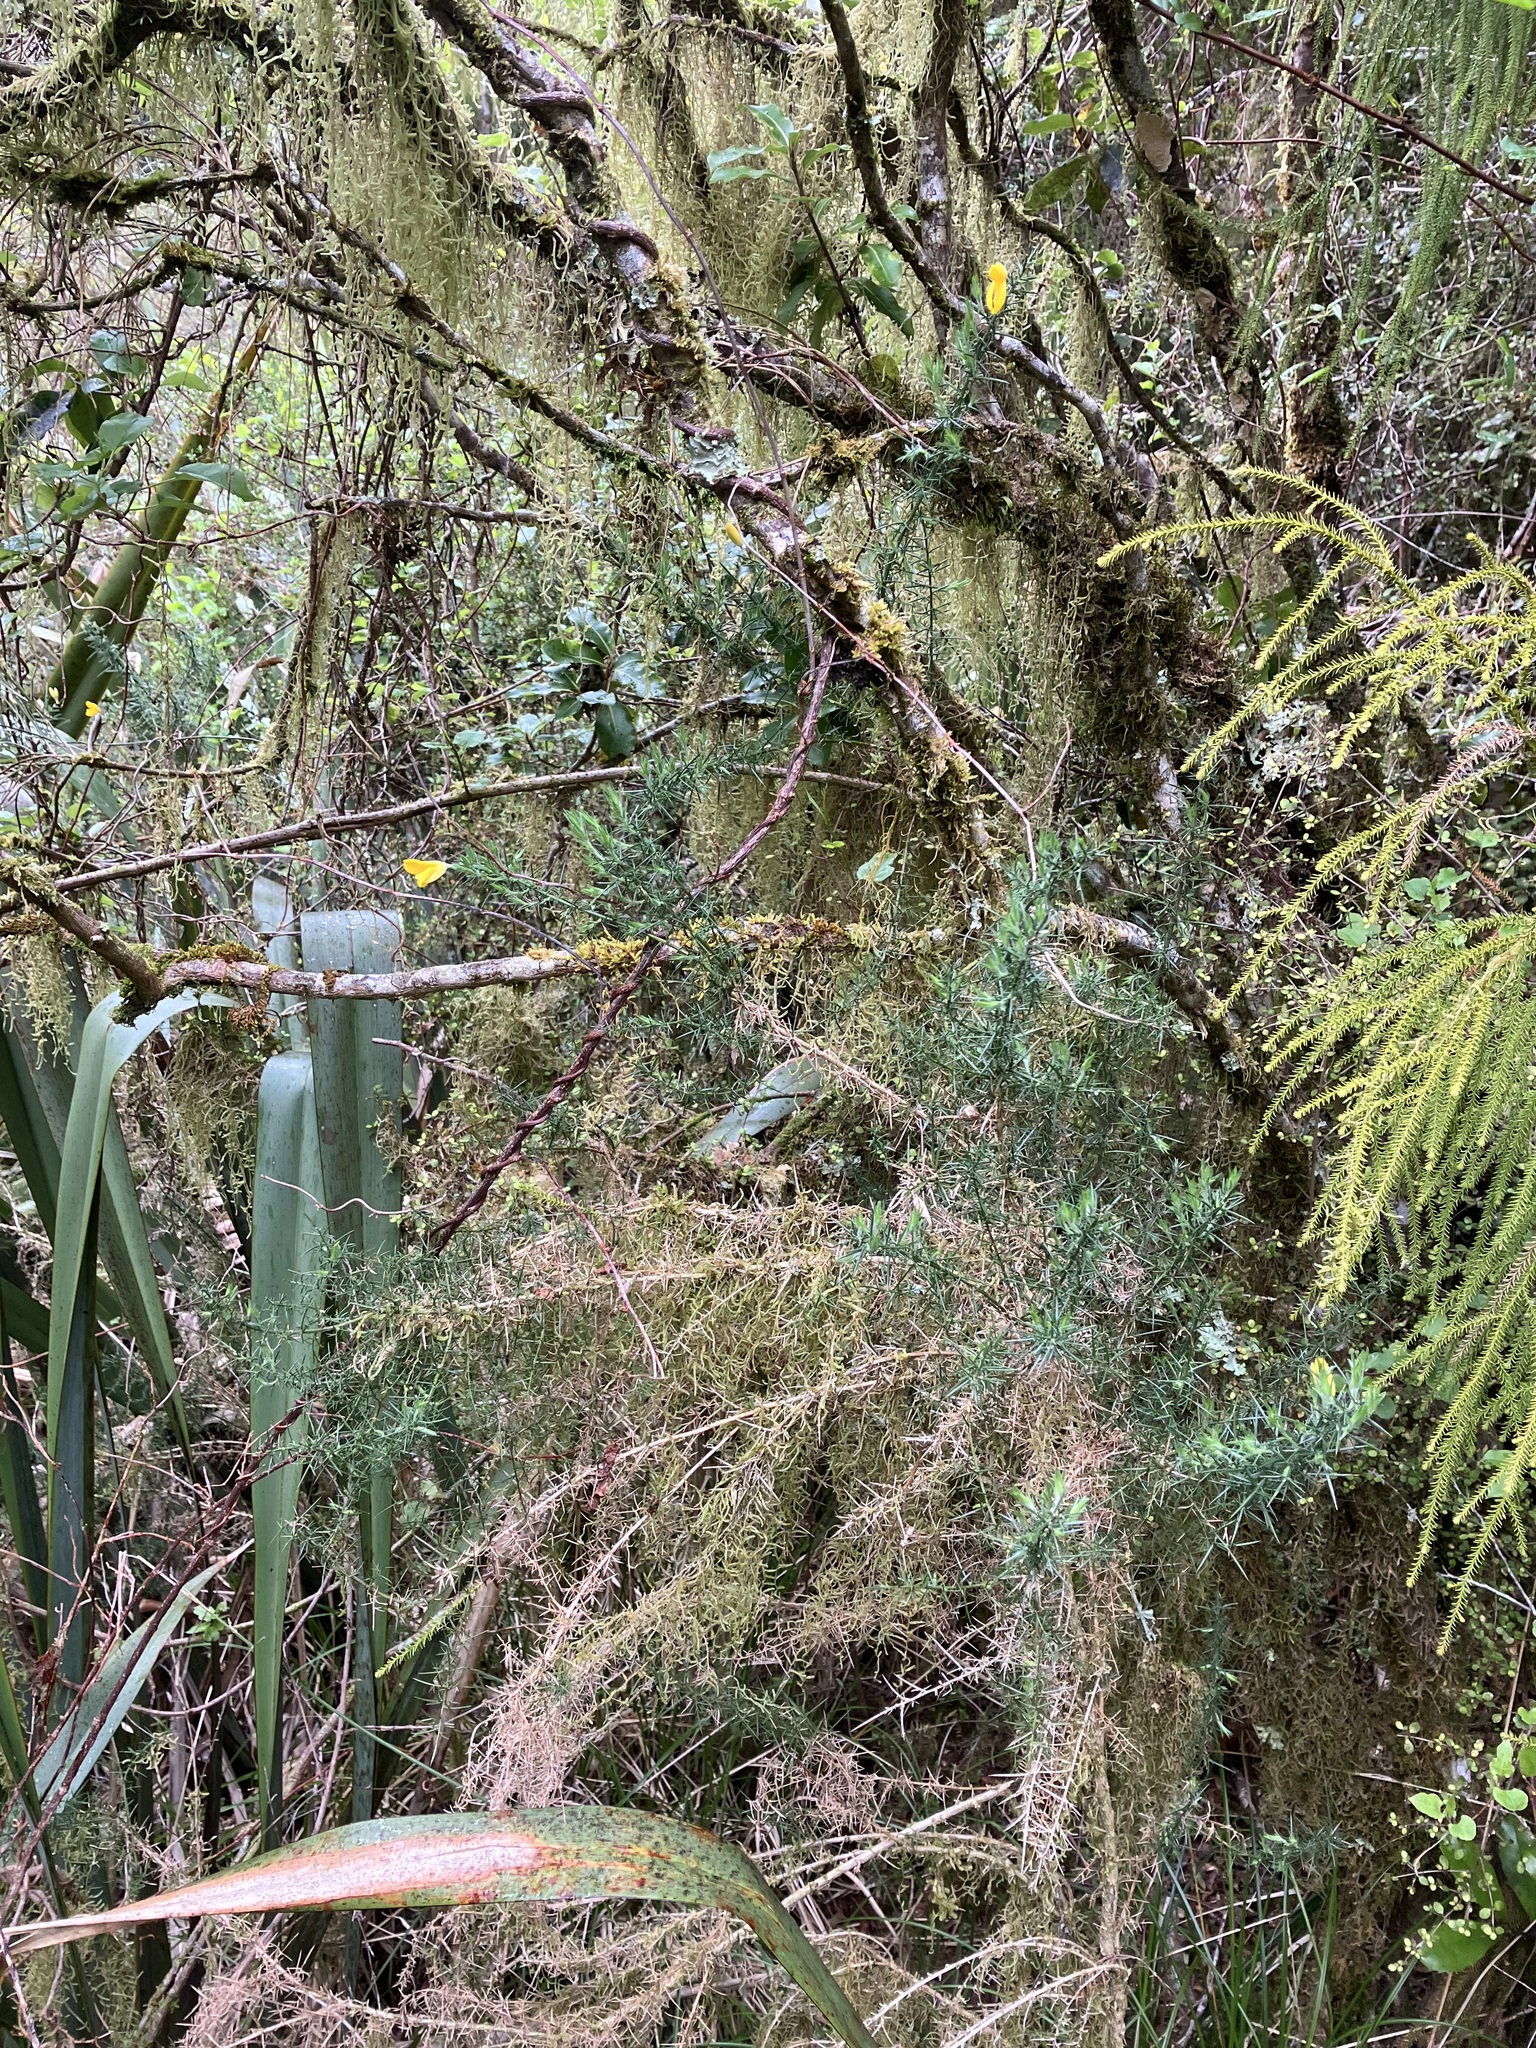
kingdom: Plantae
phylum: Tracheophyta
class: Magnoliopsida
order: Fabales
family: Fabaceae
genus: Ulex
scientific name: Ulex europaeus
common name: Common gorse
